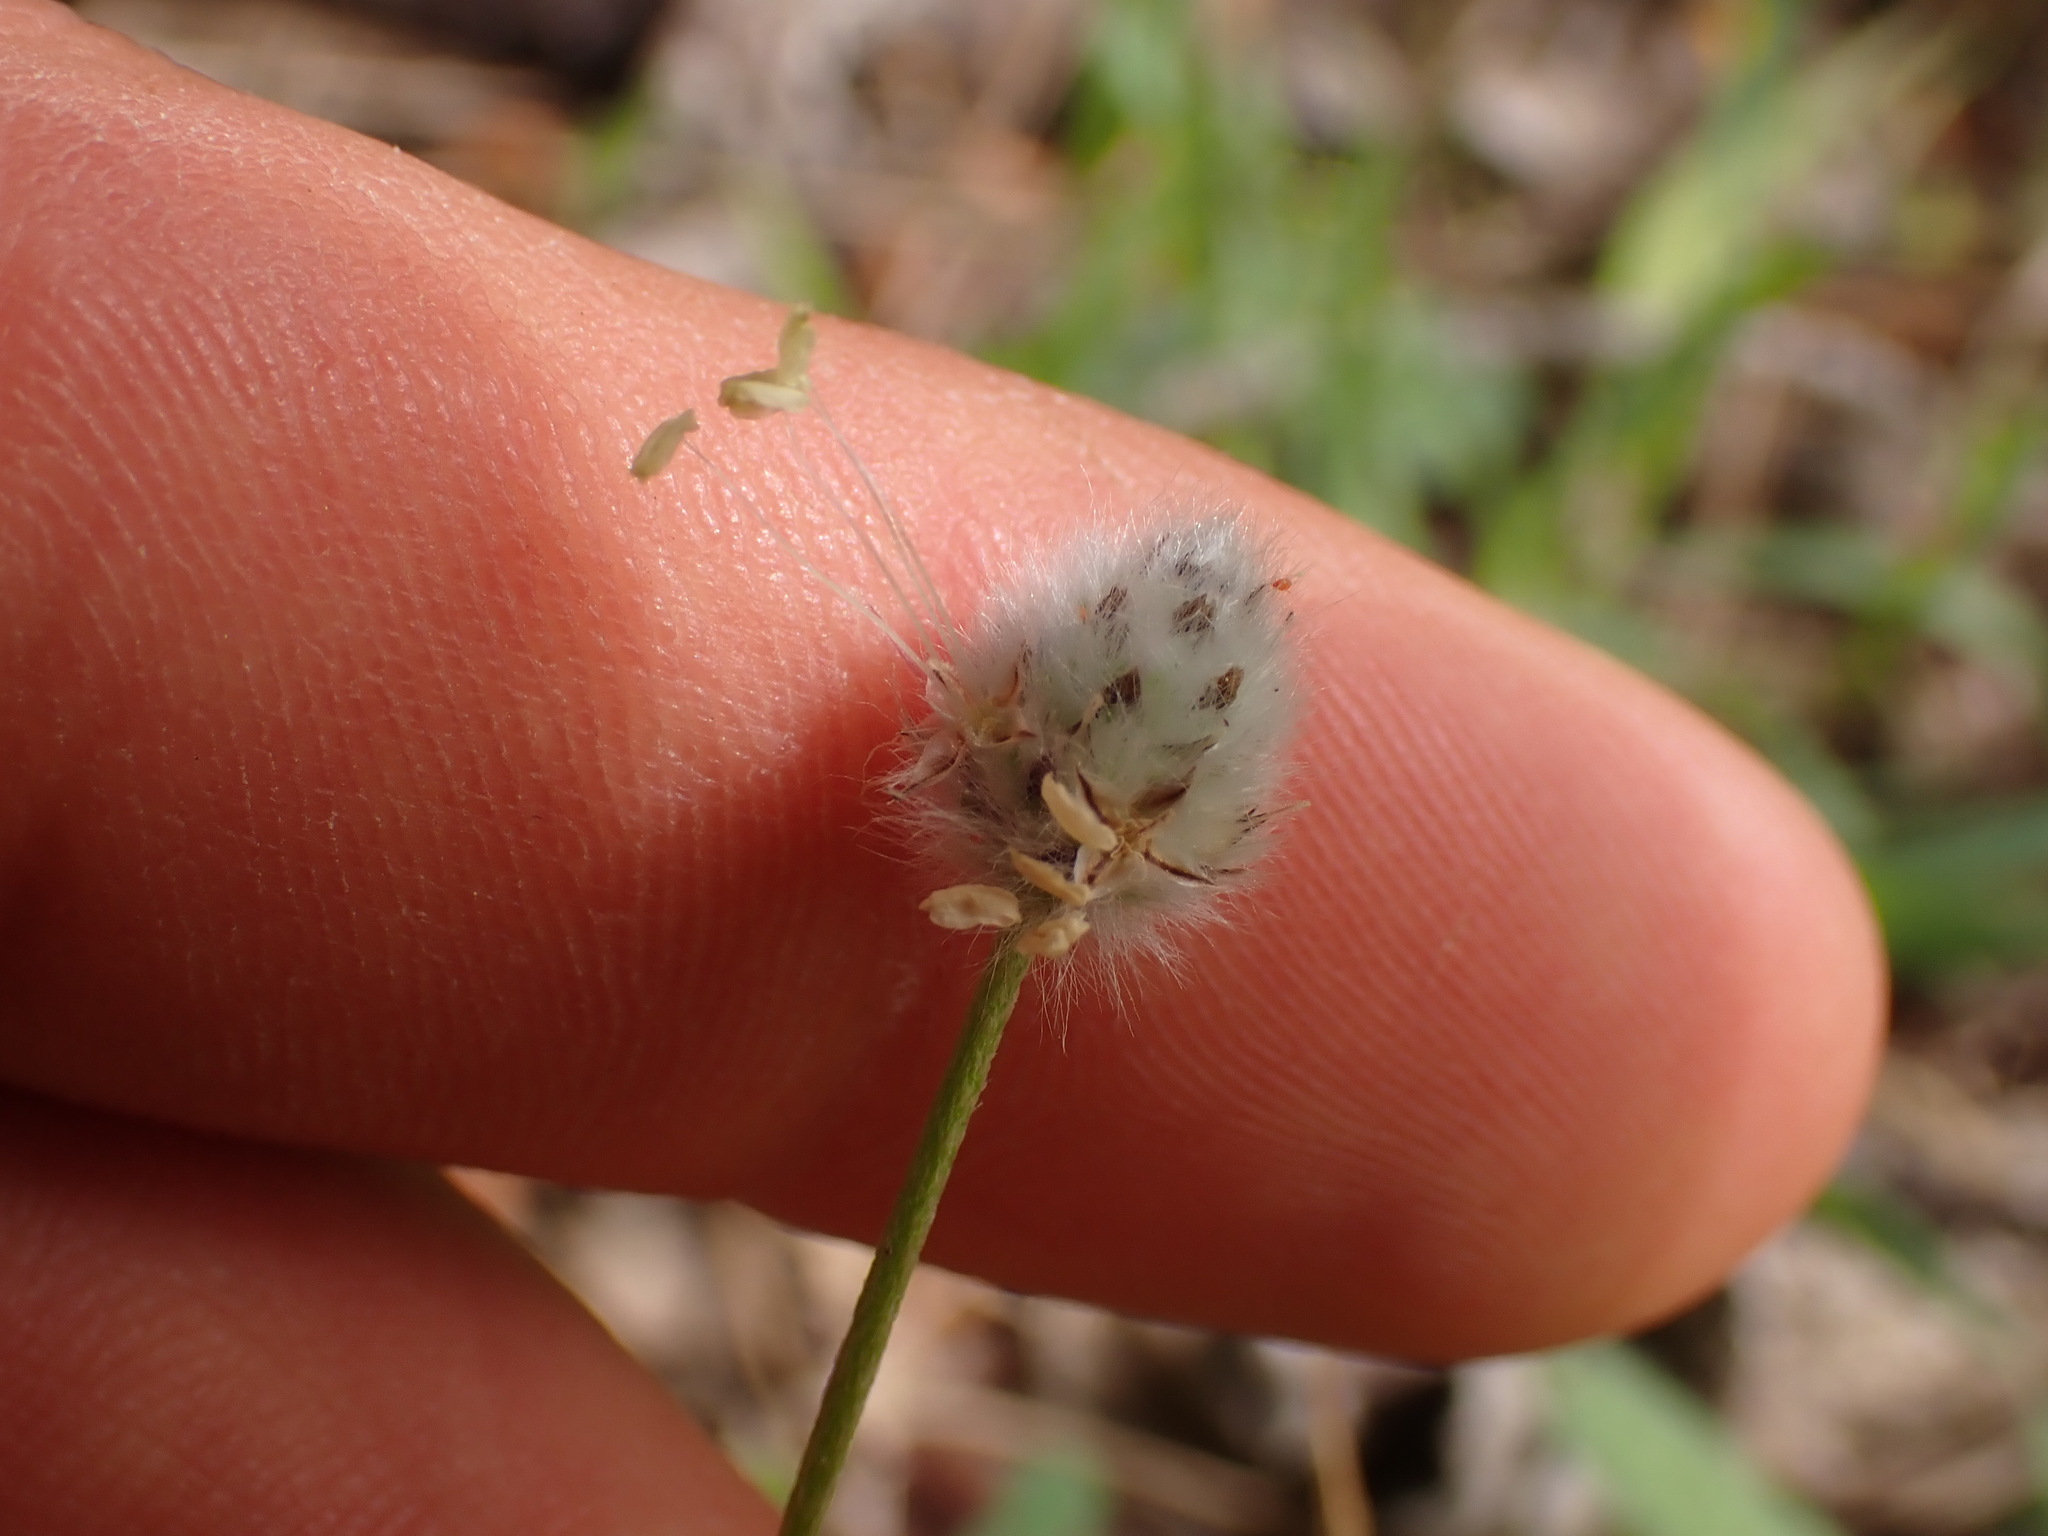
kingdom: Plantae
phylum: Tracheophyta
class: Magnoliopsida
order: Lamiales
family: Plantaginaceae
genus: Plantago
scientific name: Plantago lagopus
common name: Hare-foot plantain
